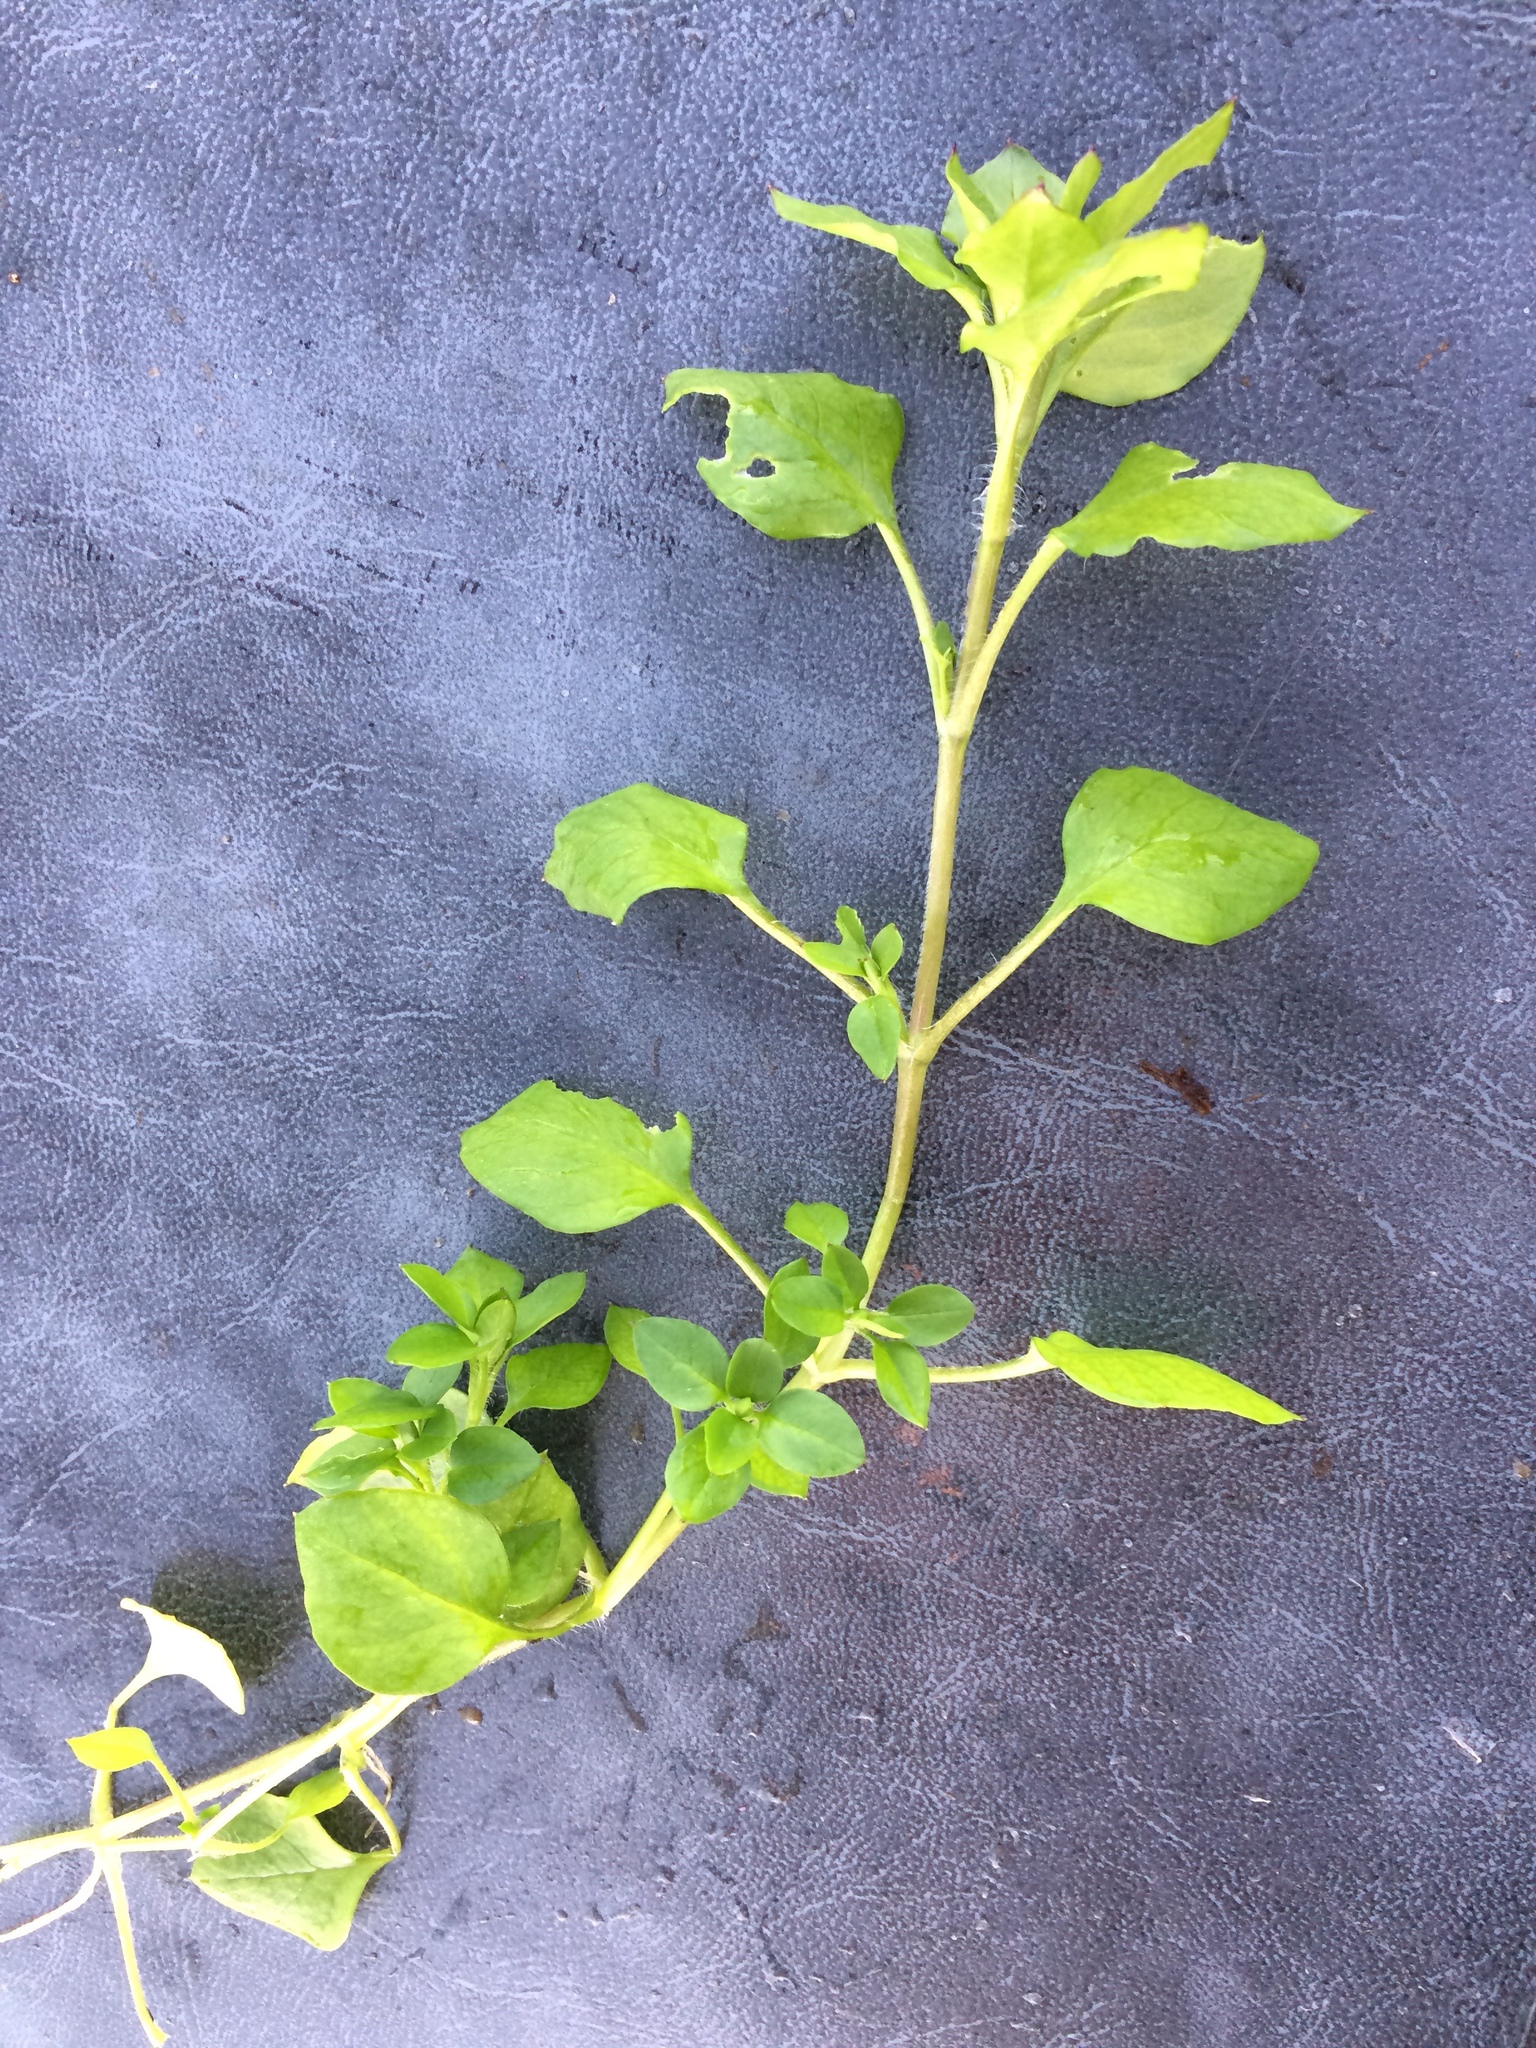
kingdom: Plantae
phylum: Tracheophyta
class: Magnoliopsida
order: Caryophyllales
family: Caryophyllaceae
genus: Stellaria
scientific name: Stellaria media
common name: Common chickweed
